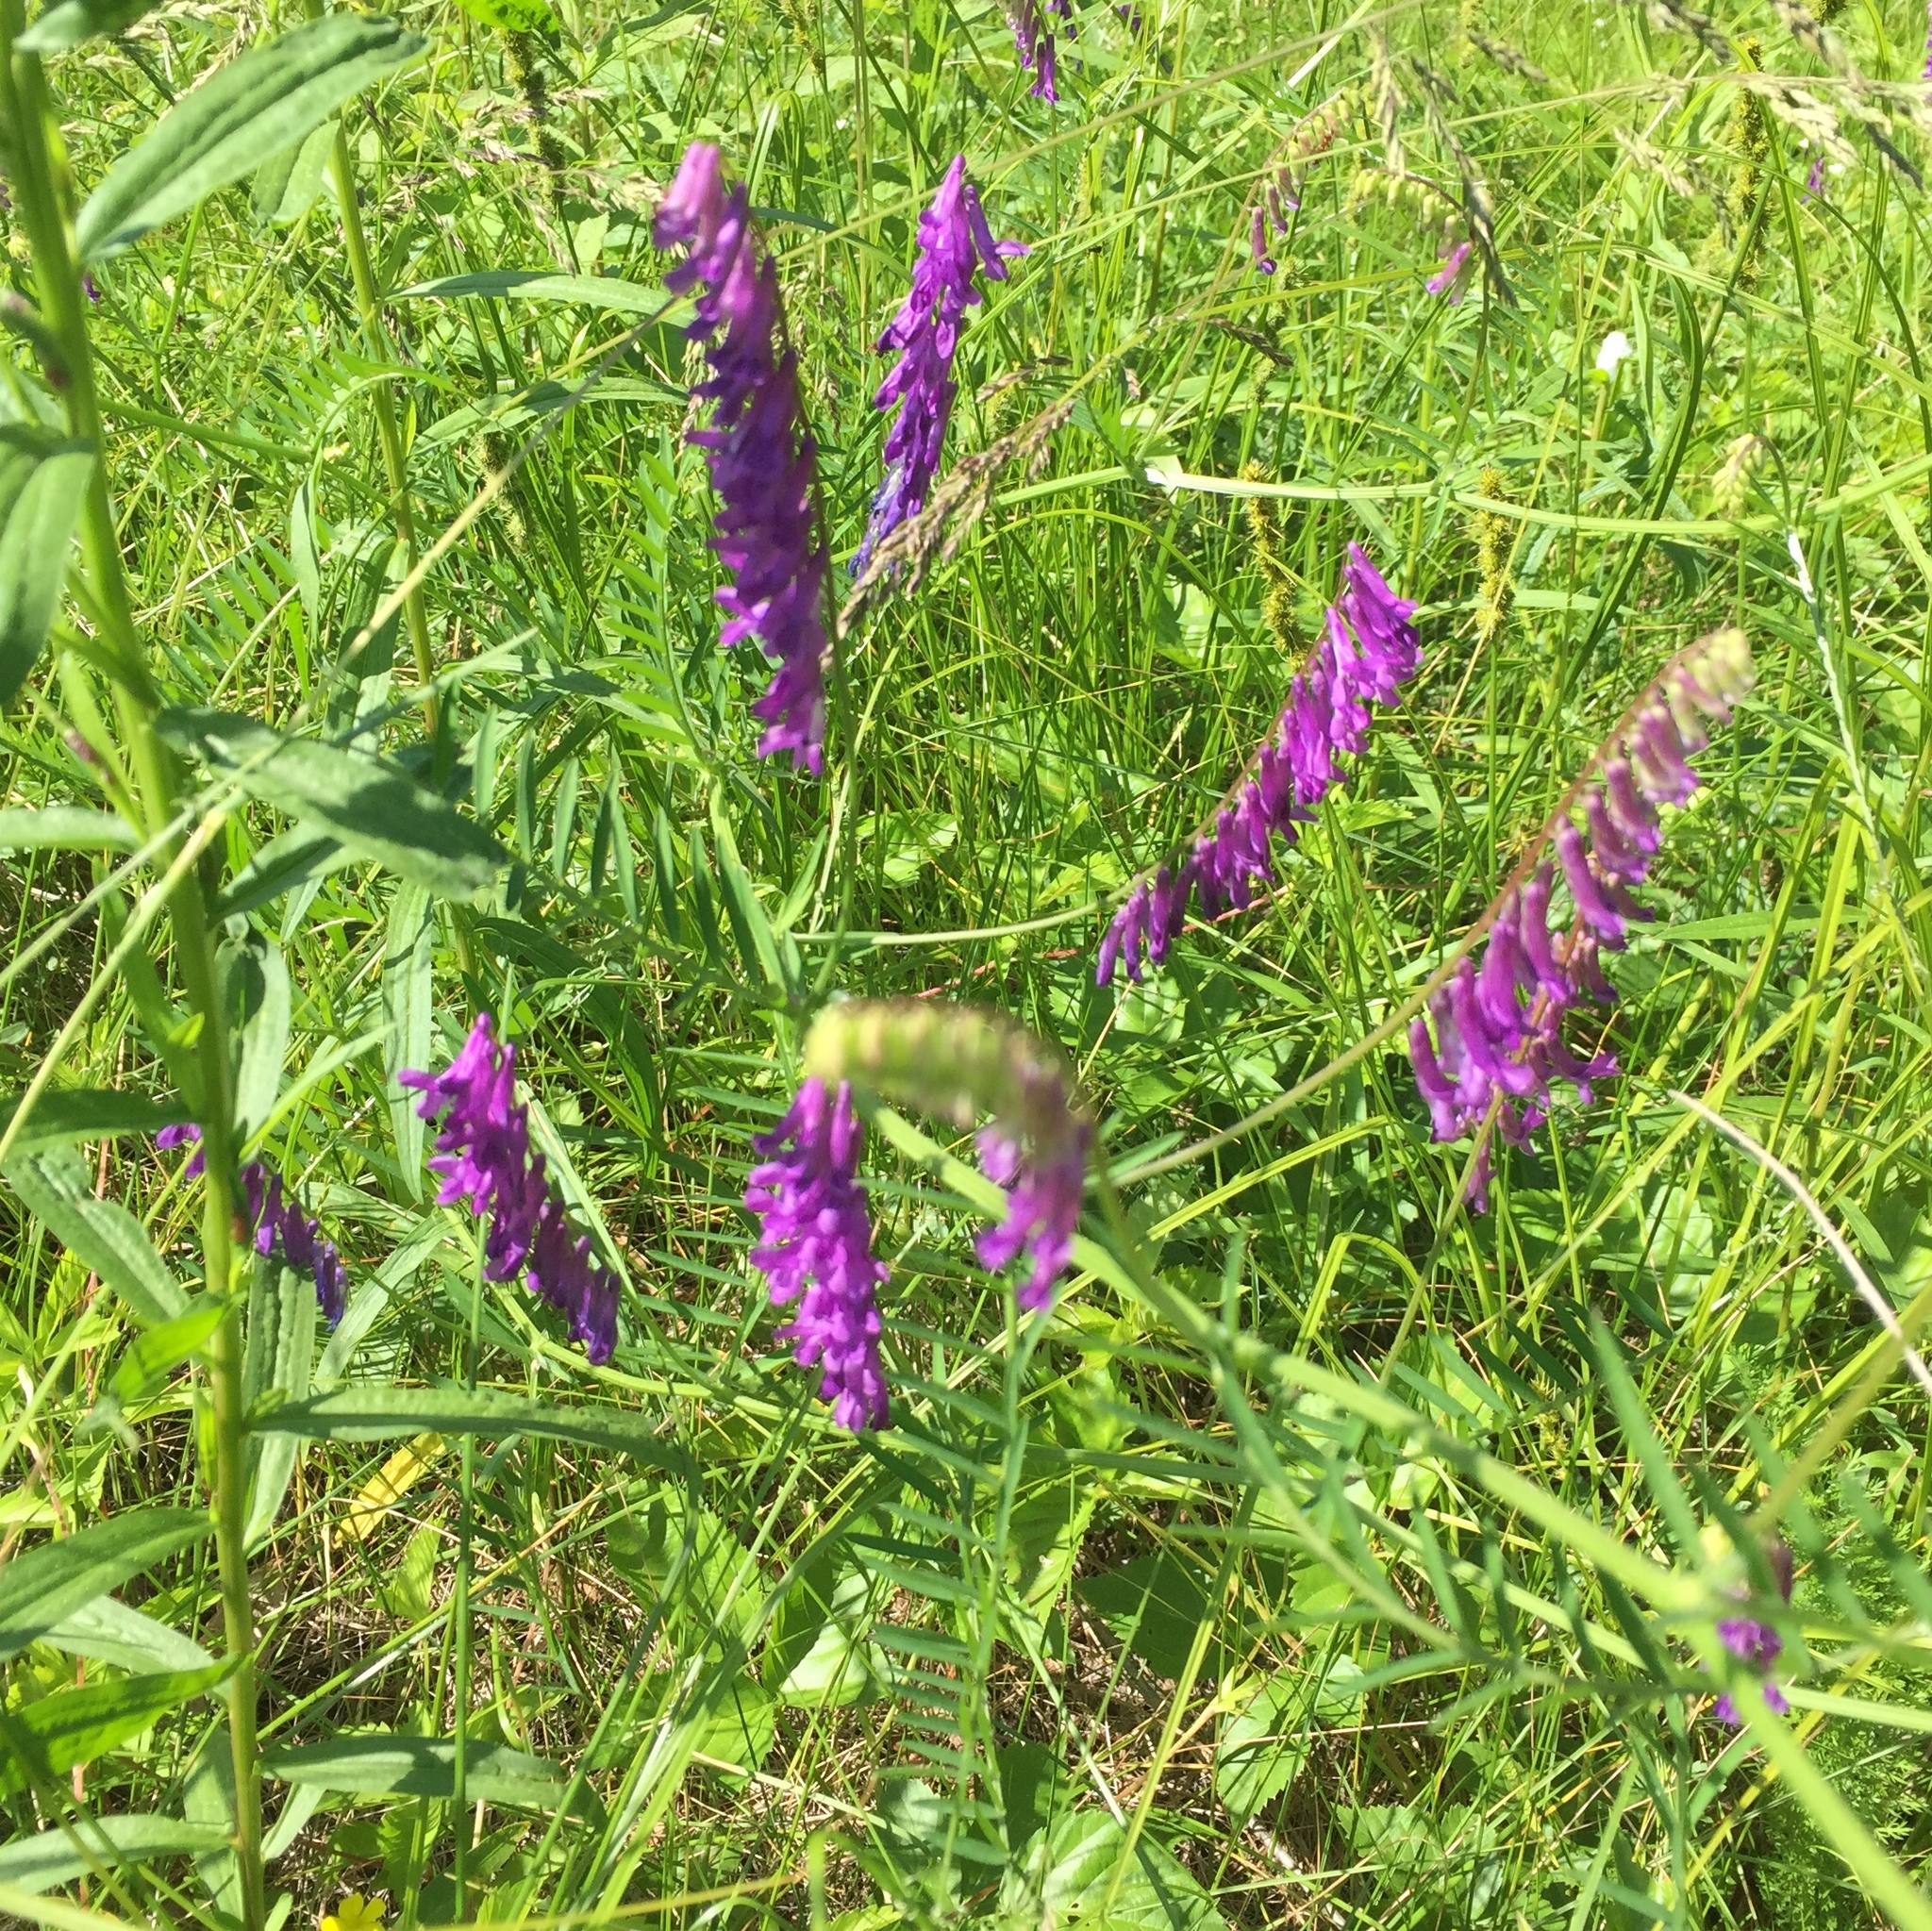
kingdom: Plantae
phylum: Tracheophyta
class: Magnoliopsida
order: Fabales
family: Fabaceae
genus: Vicia
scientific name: Vicia villosa
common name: Fodder vetch
